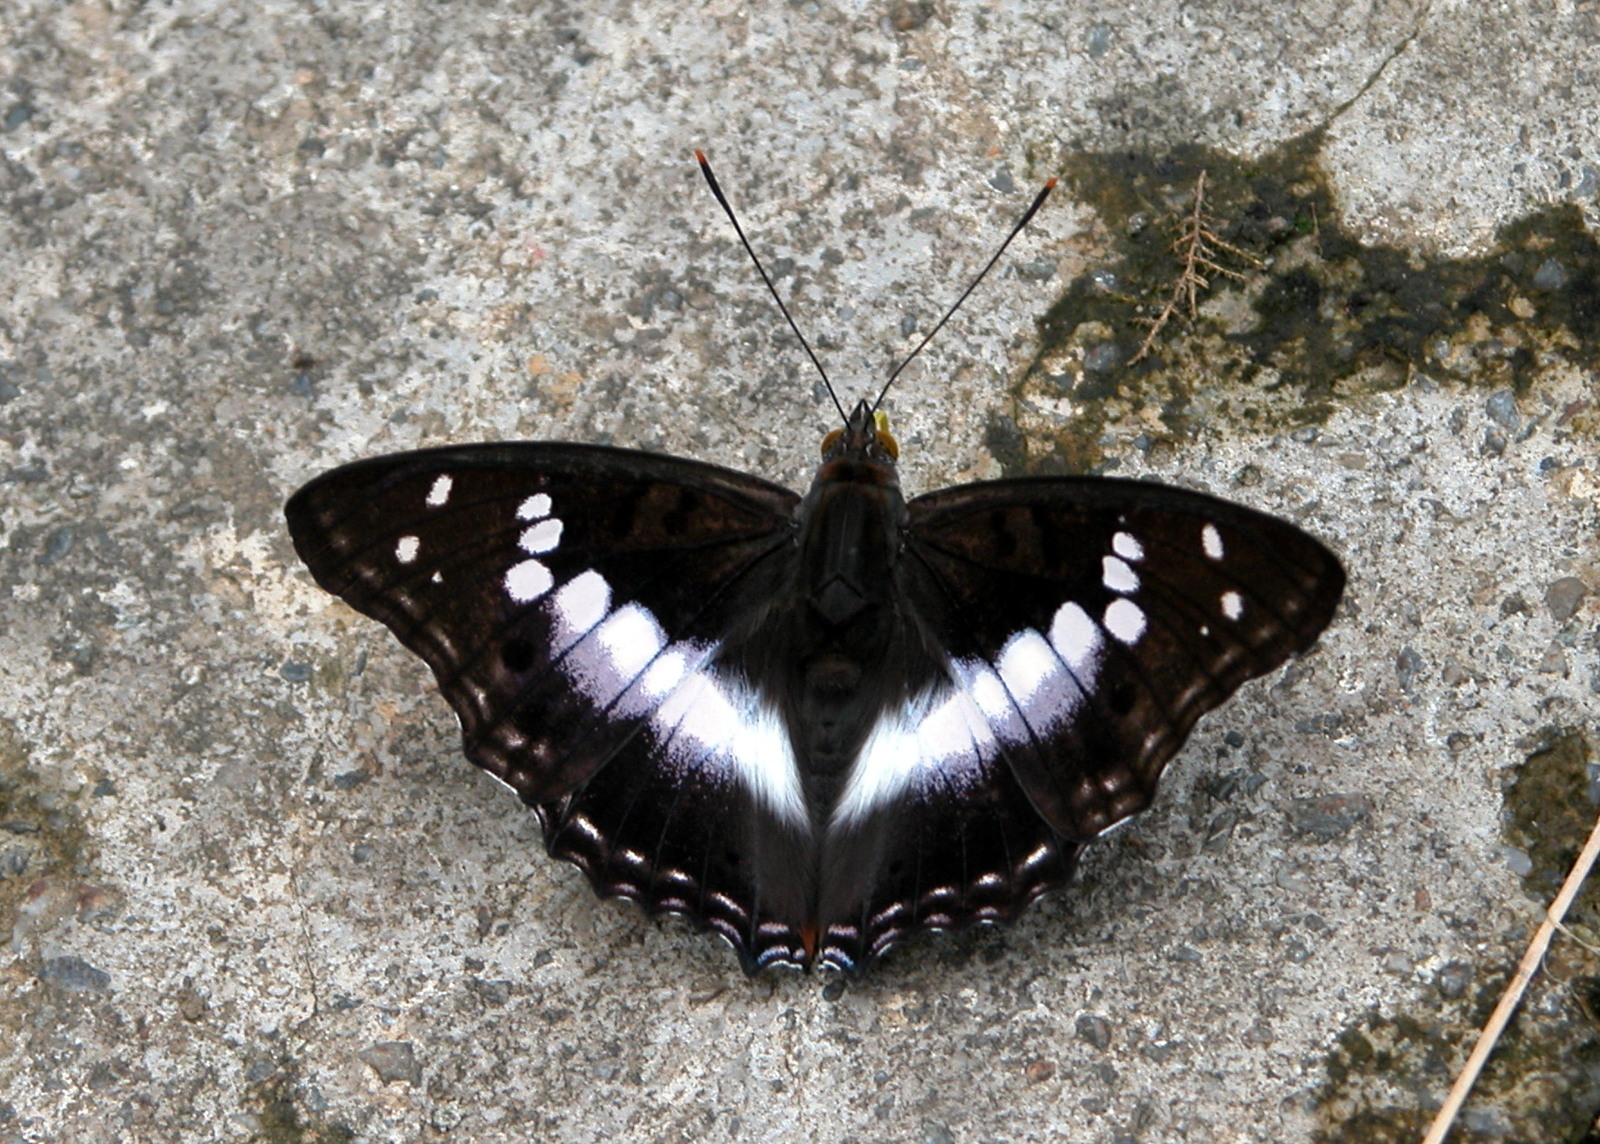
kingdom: Animalia
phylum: Arthropoda
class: Insecta
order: Lepidoptera
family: Nymphalidae
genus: Apatura
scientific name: Apatura Mimathyma ambica
